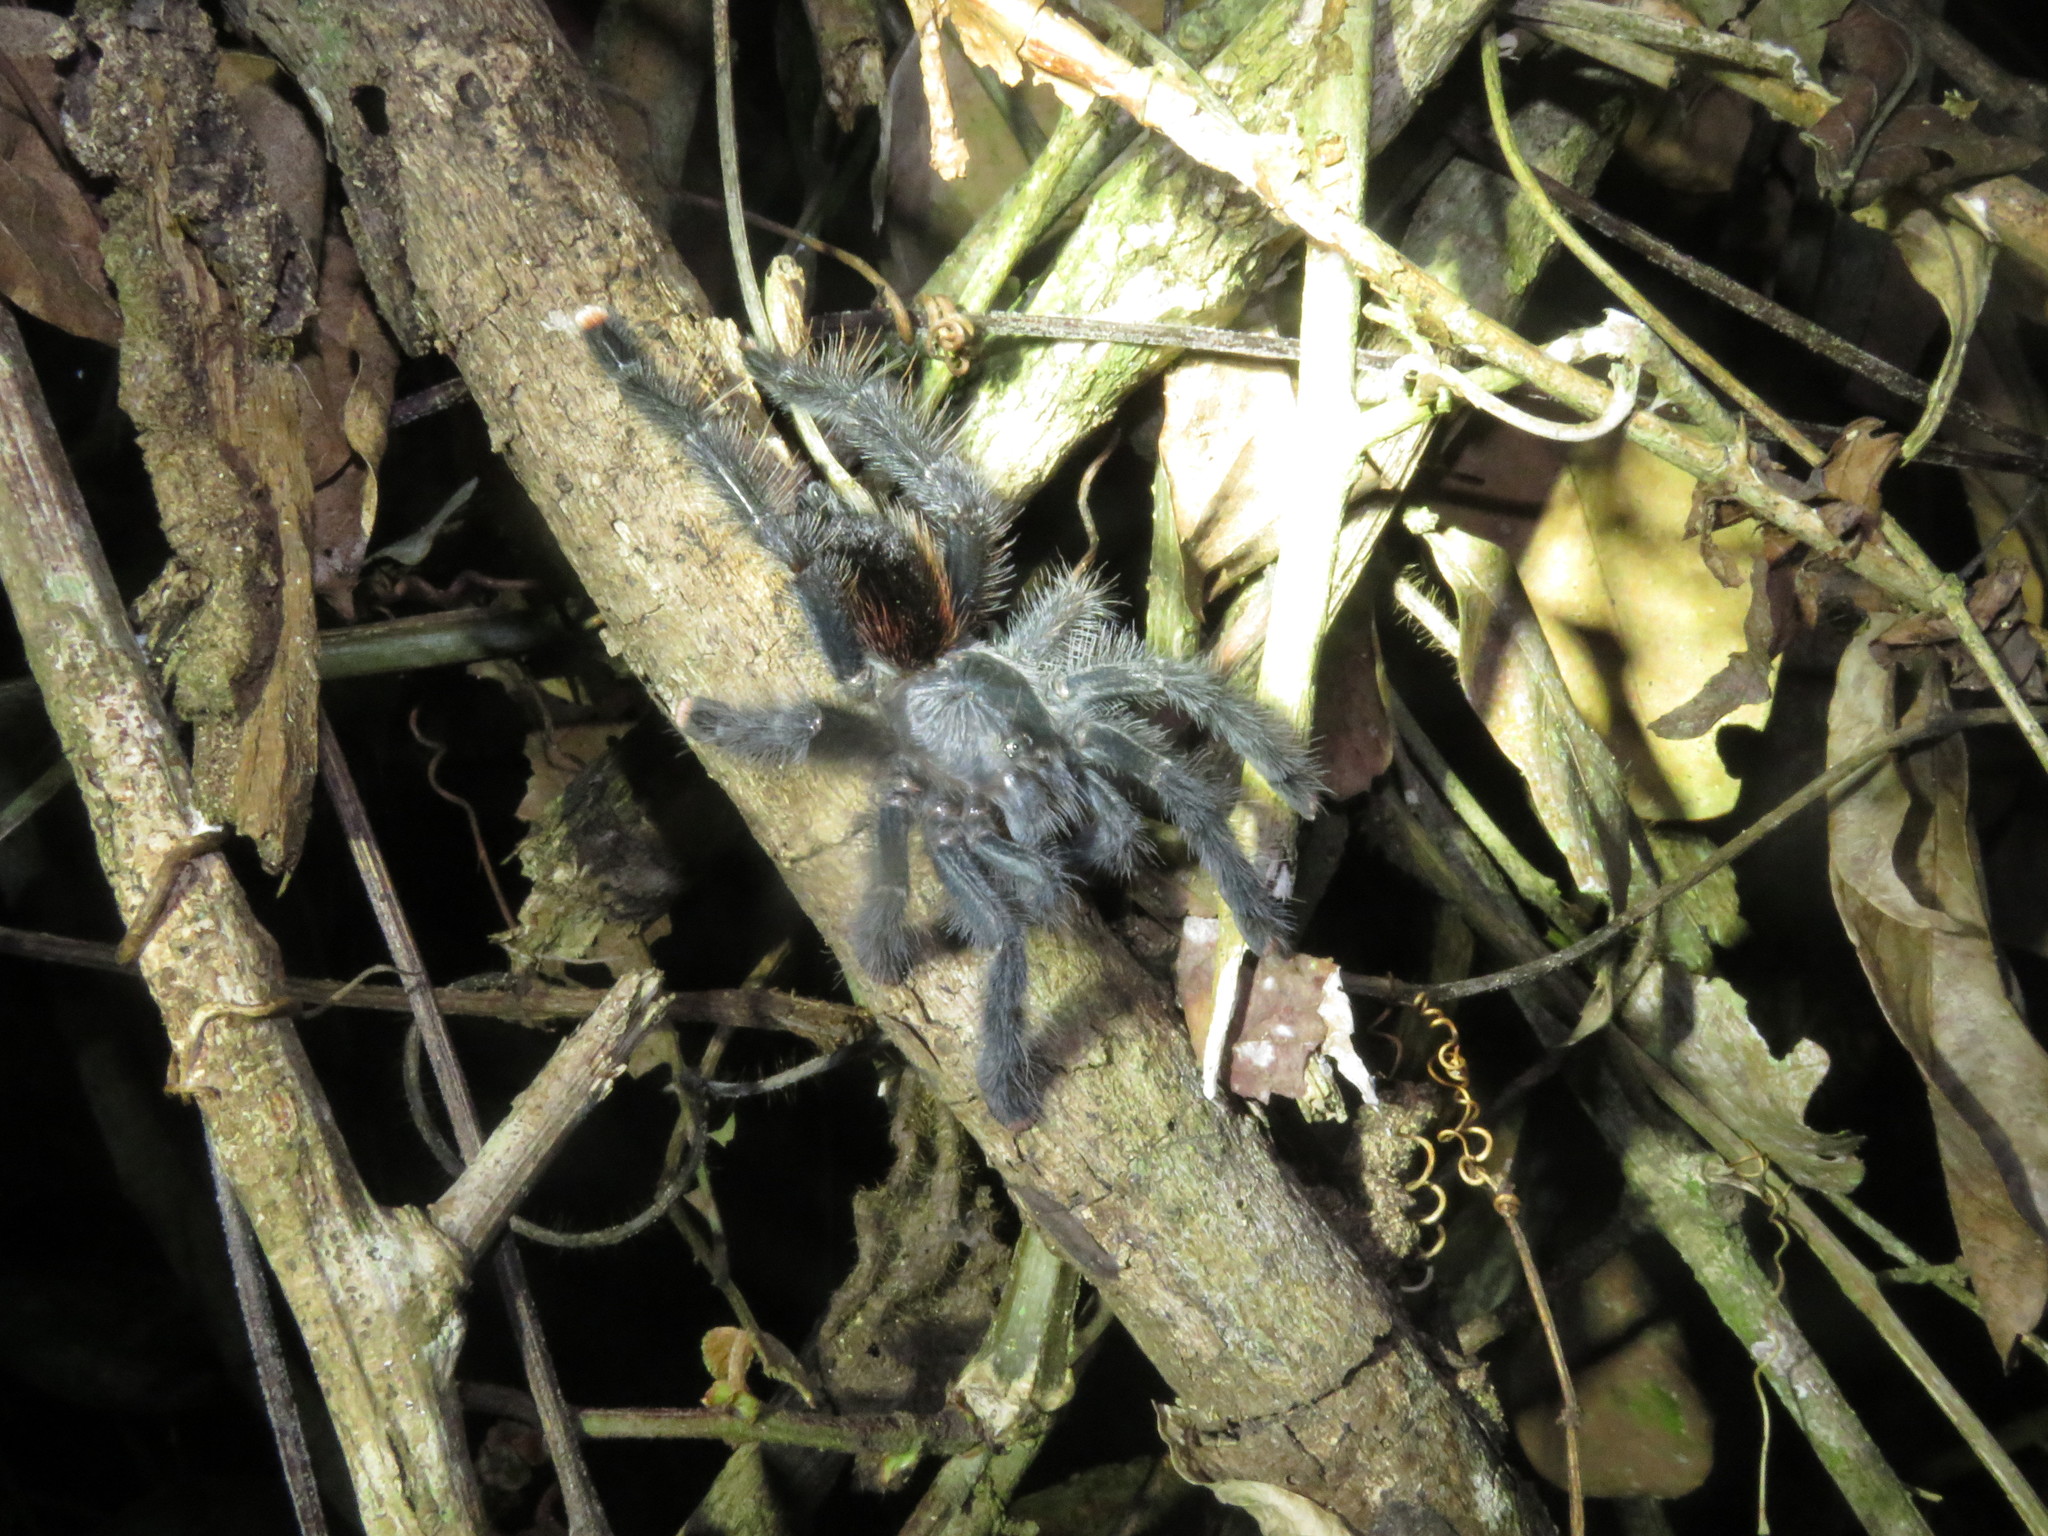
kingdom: Animalia
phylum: Arthropoda
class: Arachnida
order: Araneae
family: Theraphosidae
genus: Avicularia
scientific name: Avicularia avicularia
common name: Tarantula spiders
